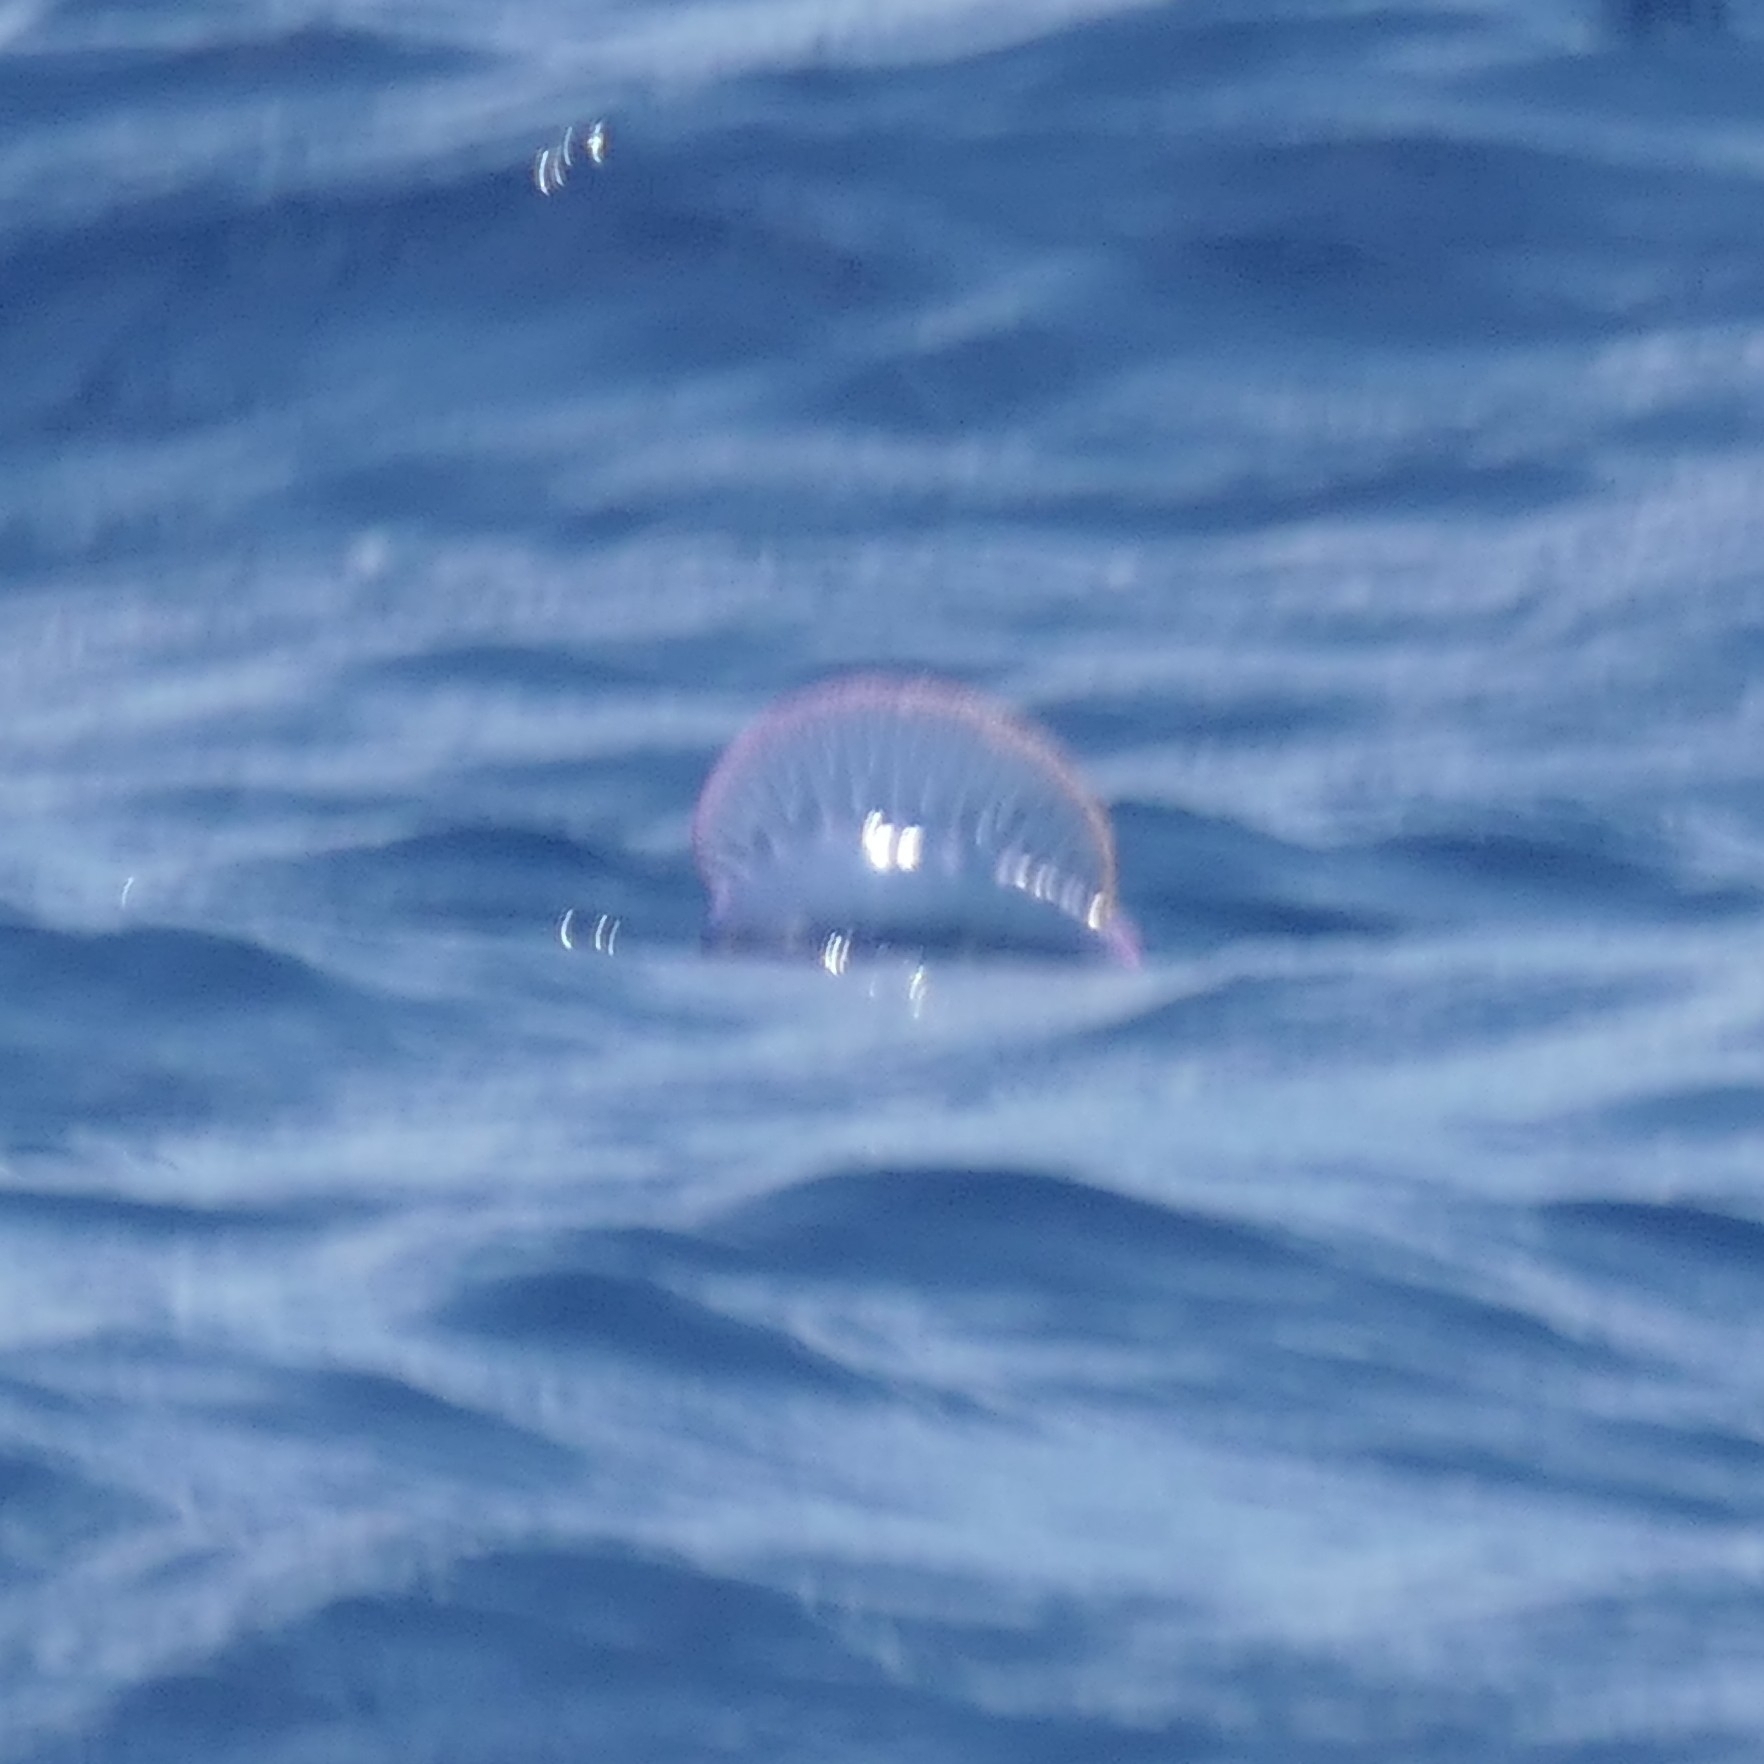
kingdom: Animalia
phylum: Cnidaria
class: Hydrozoa
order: Siphonophorae
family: Physaliidae
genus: Physalia
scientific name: Physalia physalis
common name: Portuguese man-of-war
